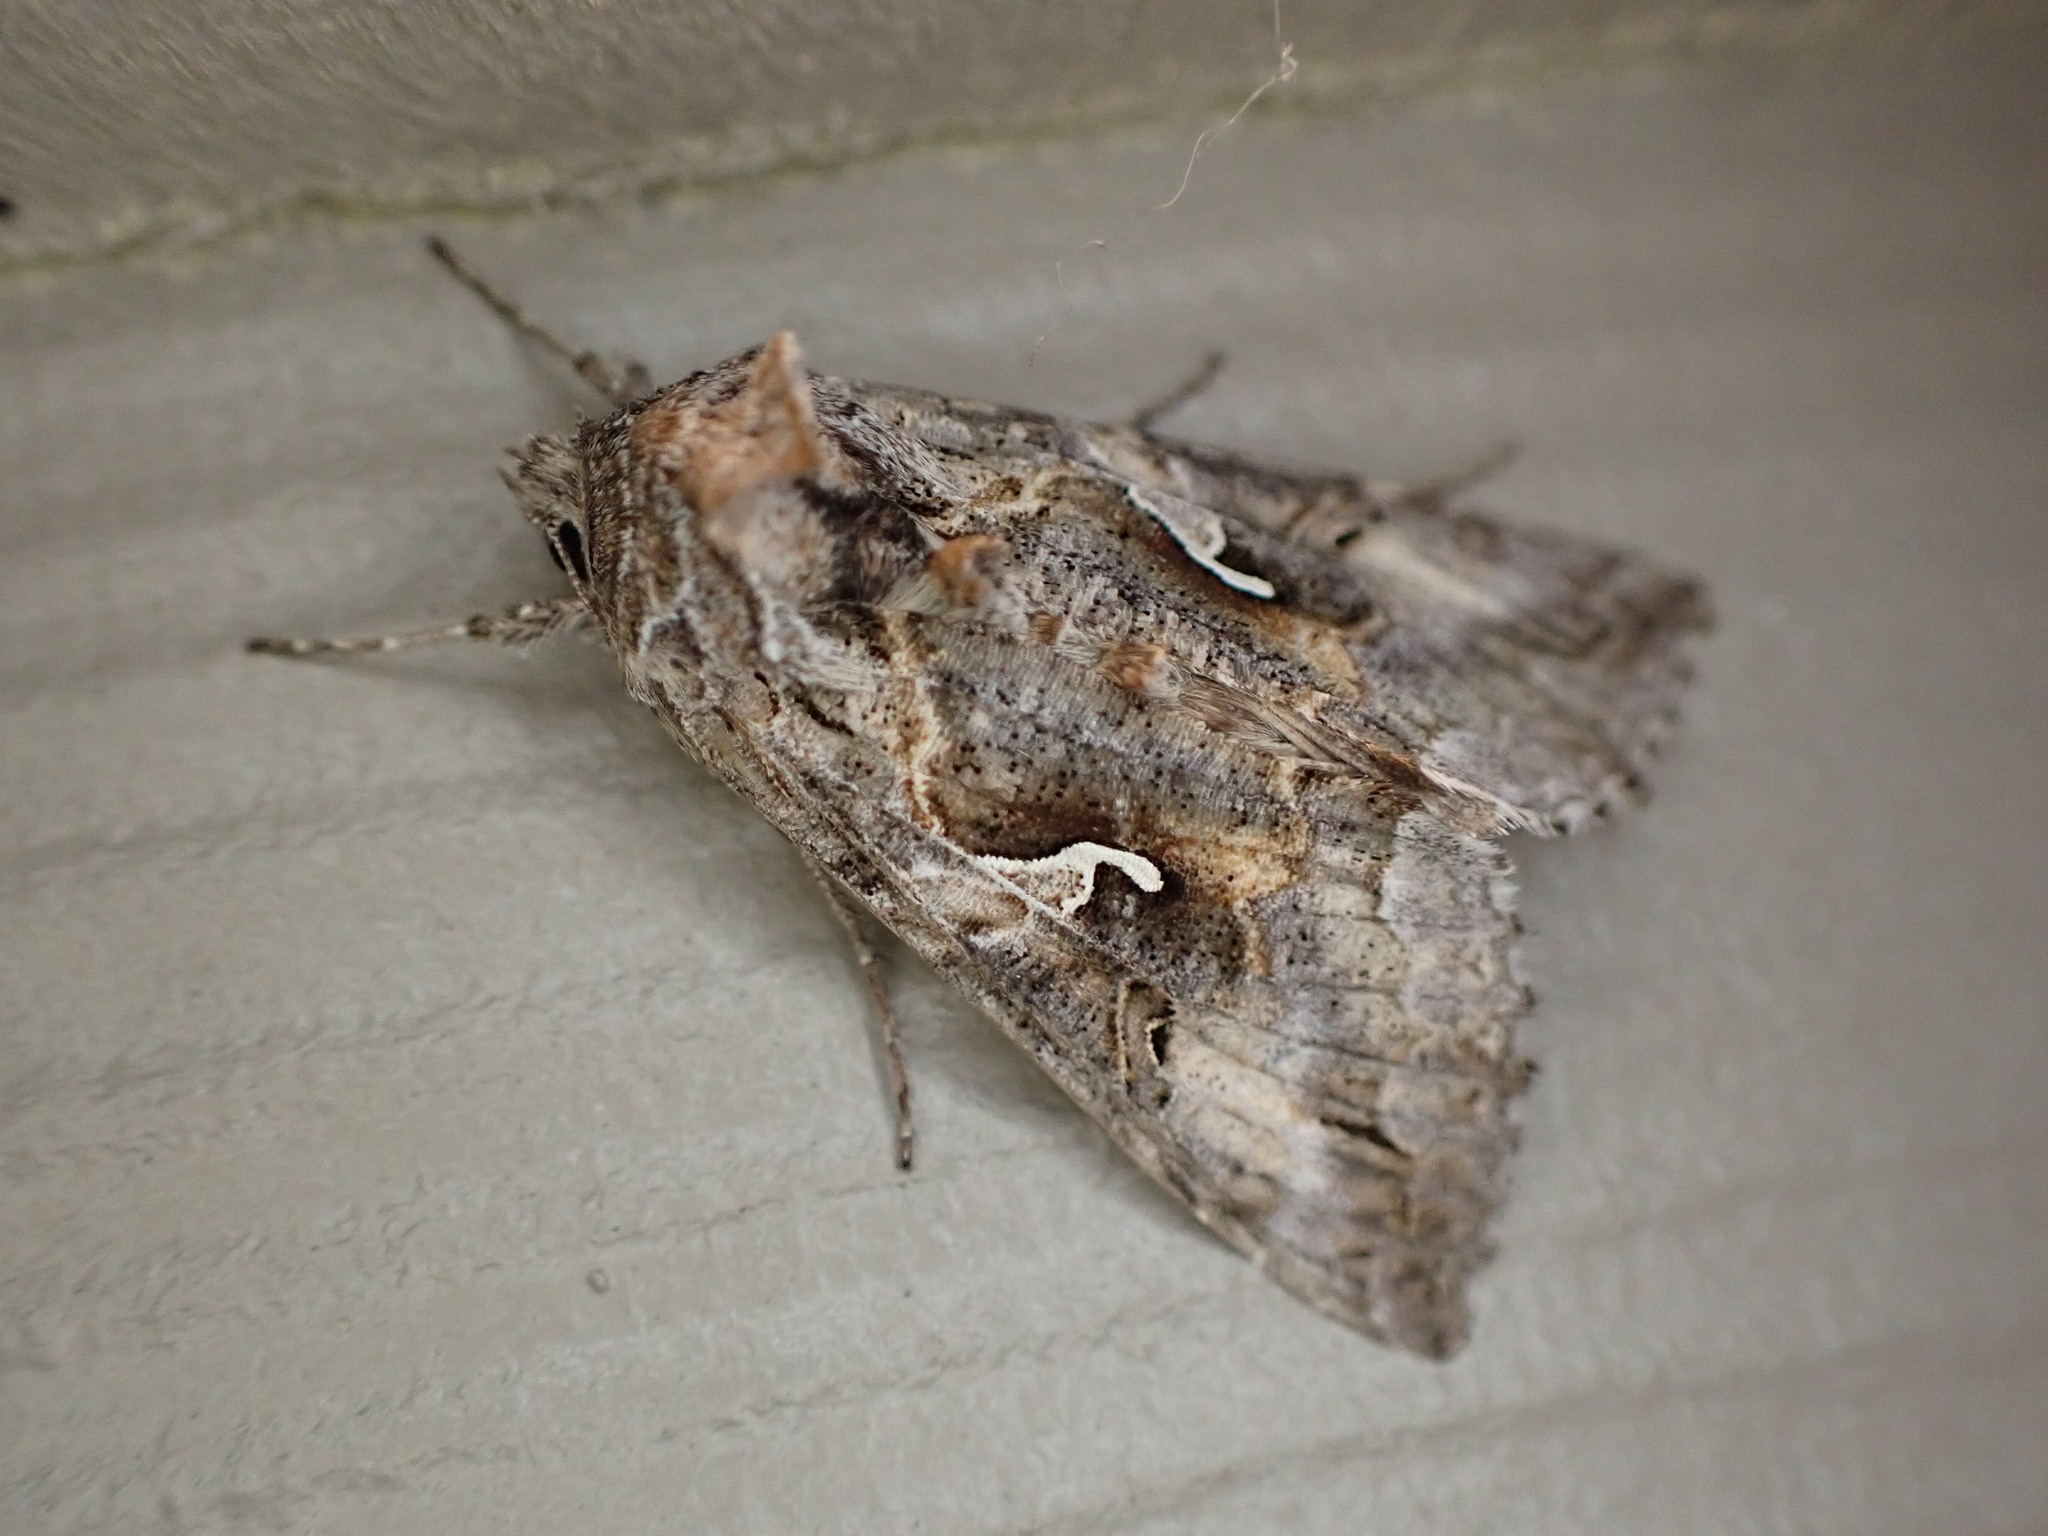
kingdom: Animalia
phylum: Arthropoda
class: Insecta
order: Lepidoptera
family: Noctuidae
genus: Autographa
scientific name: Autographa californica
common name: Alfalfa looper
